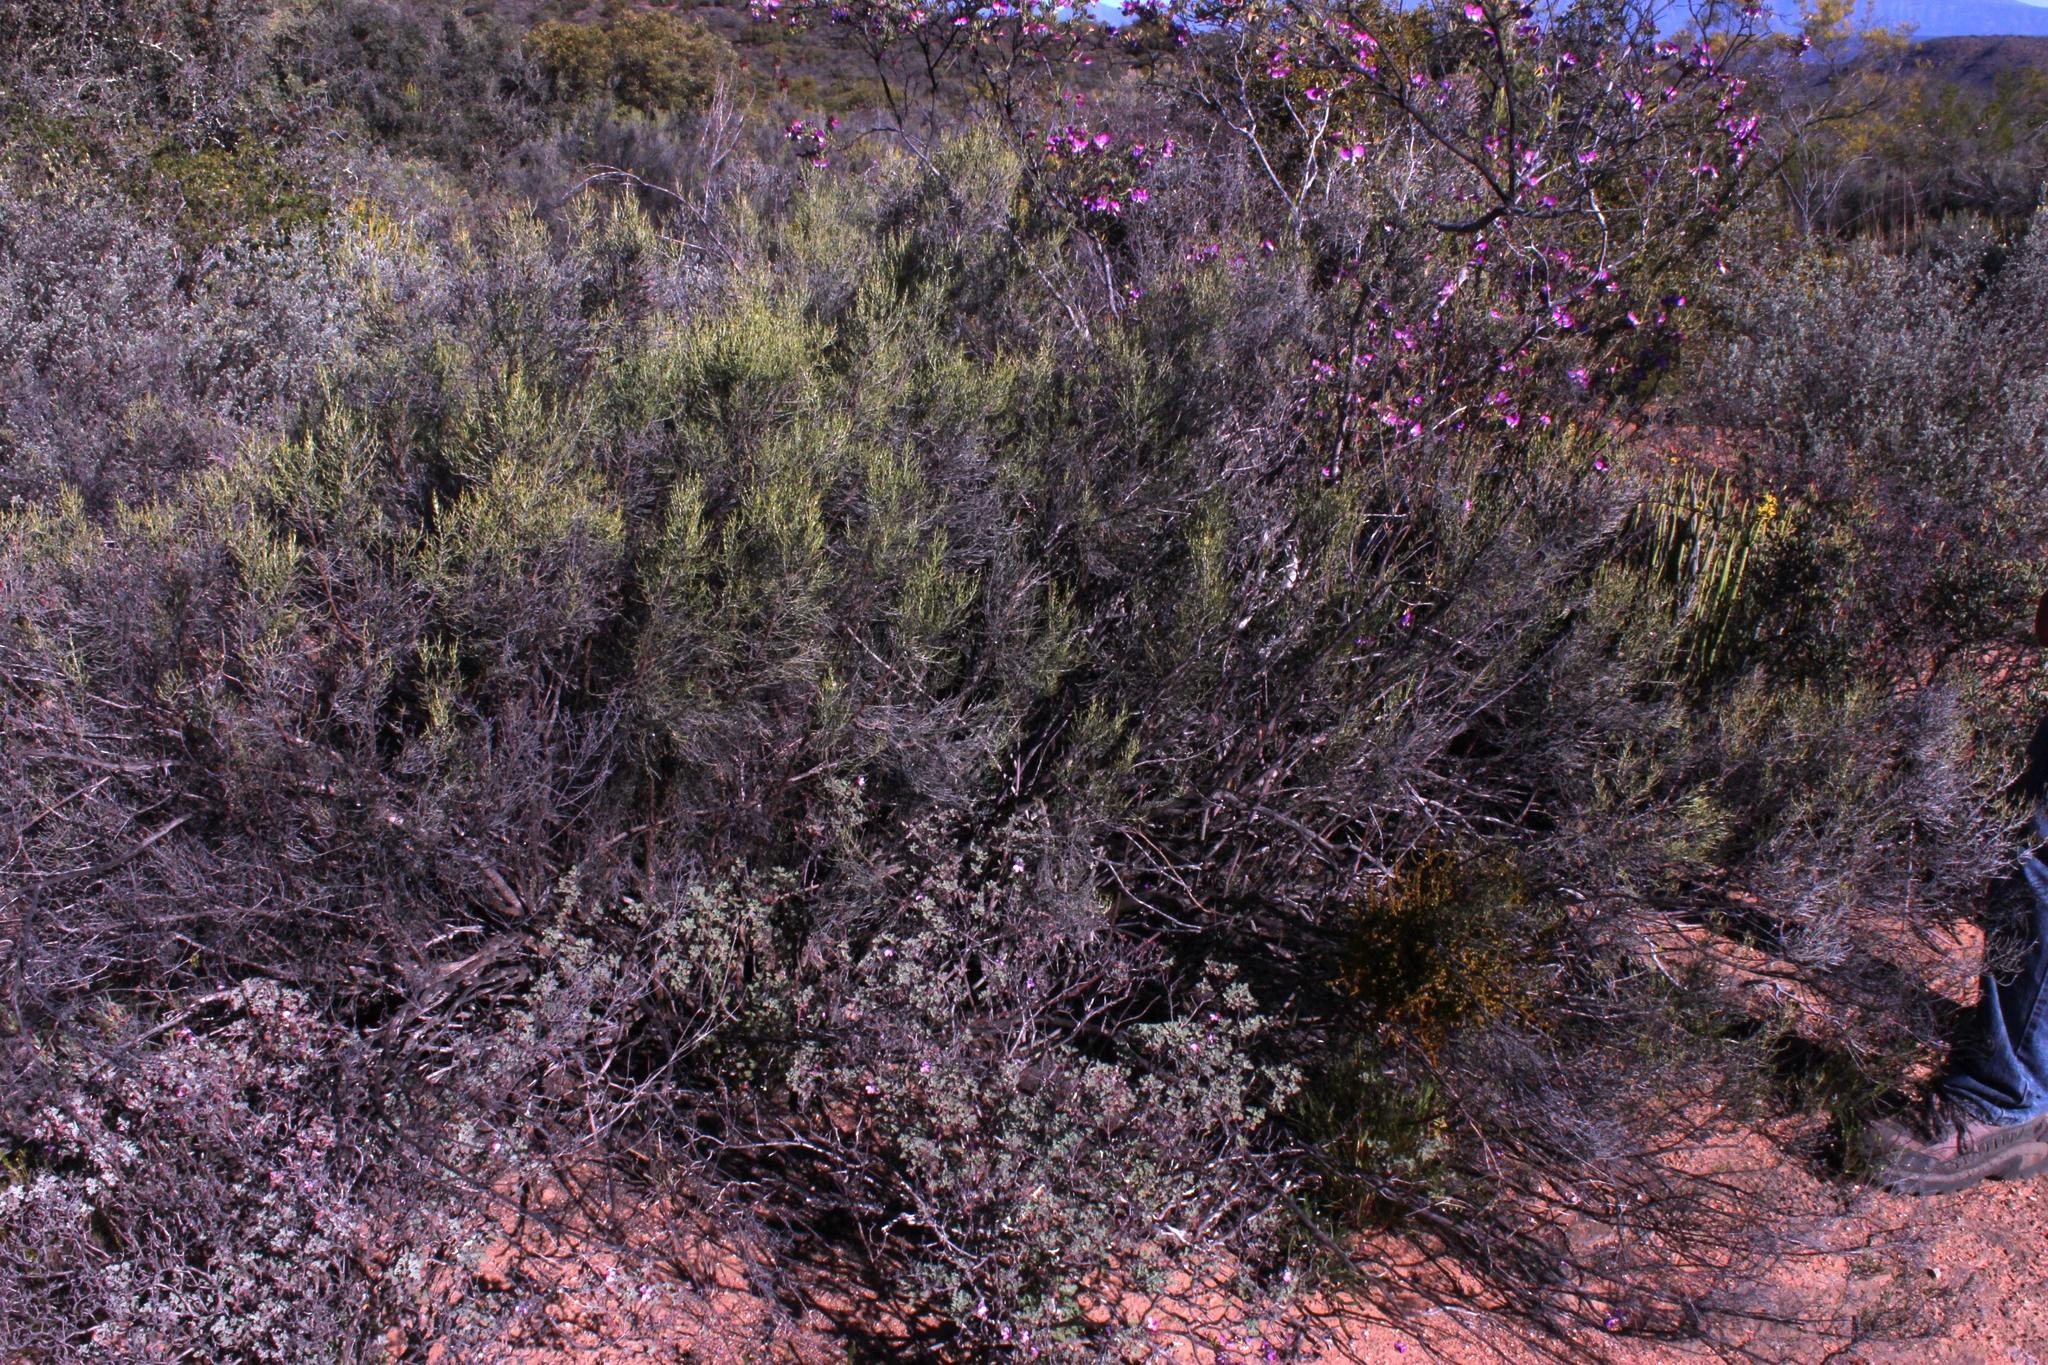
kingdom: Plantae
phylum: Tracheophyta
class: Magnoliopsida
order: Asterales
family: Asteraceae
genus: Dicerothamnus
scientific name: Dicerothamnus rhinocerotis
